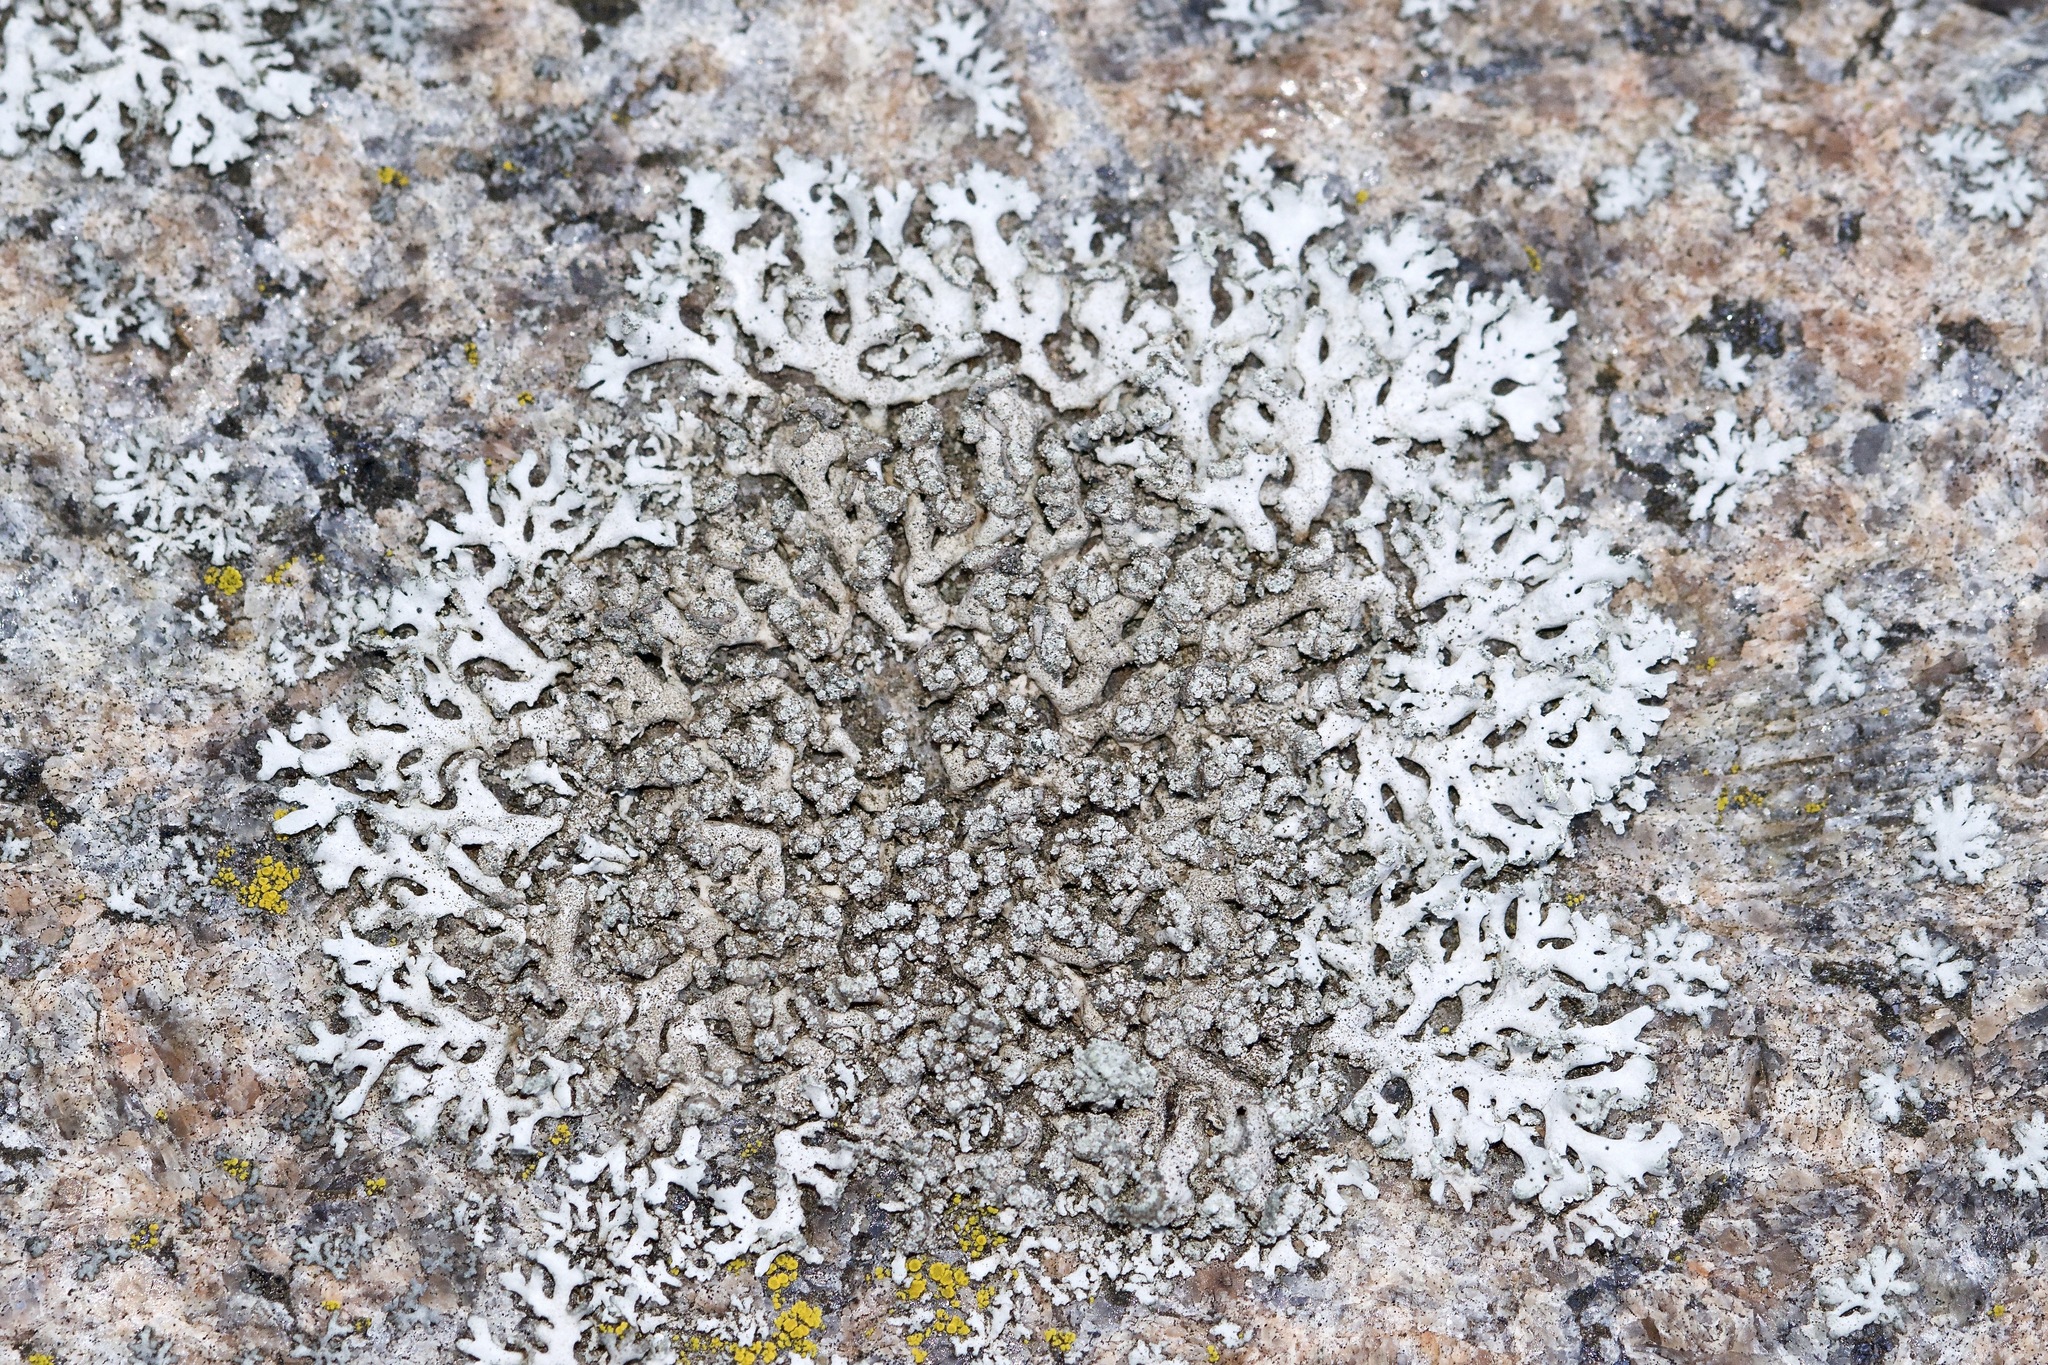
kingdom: Fungi
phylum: Ascomycota
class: Lecanoromycetes
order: Caliciales
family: Physciaceae
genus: Physcia
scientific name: Physcia dubia
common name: Powder-tipped rosette lichen
